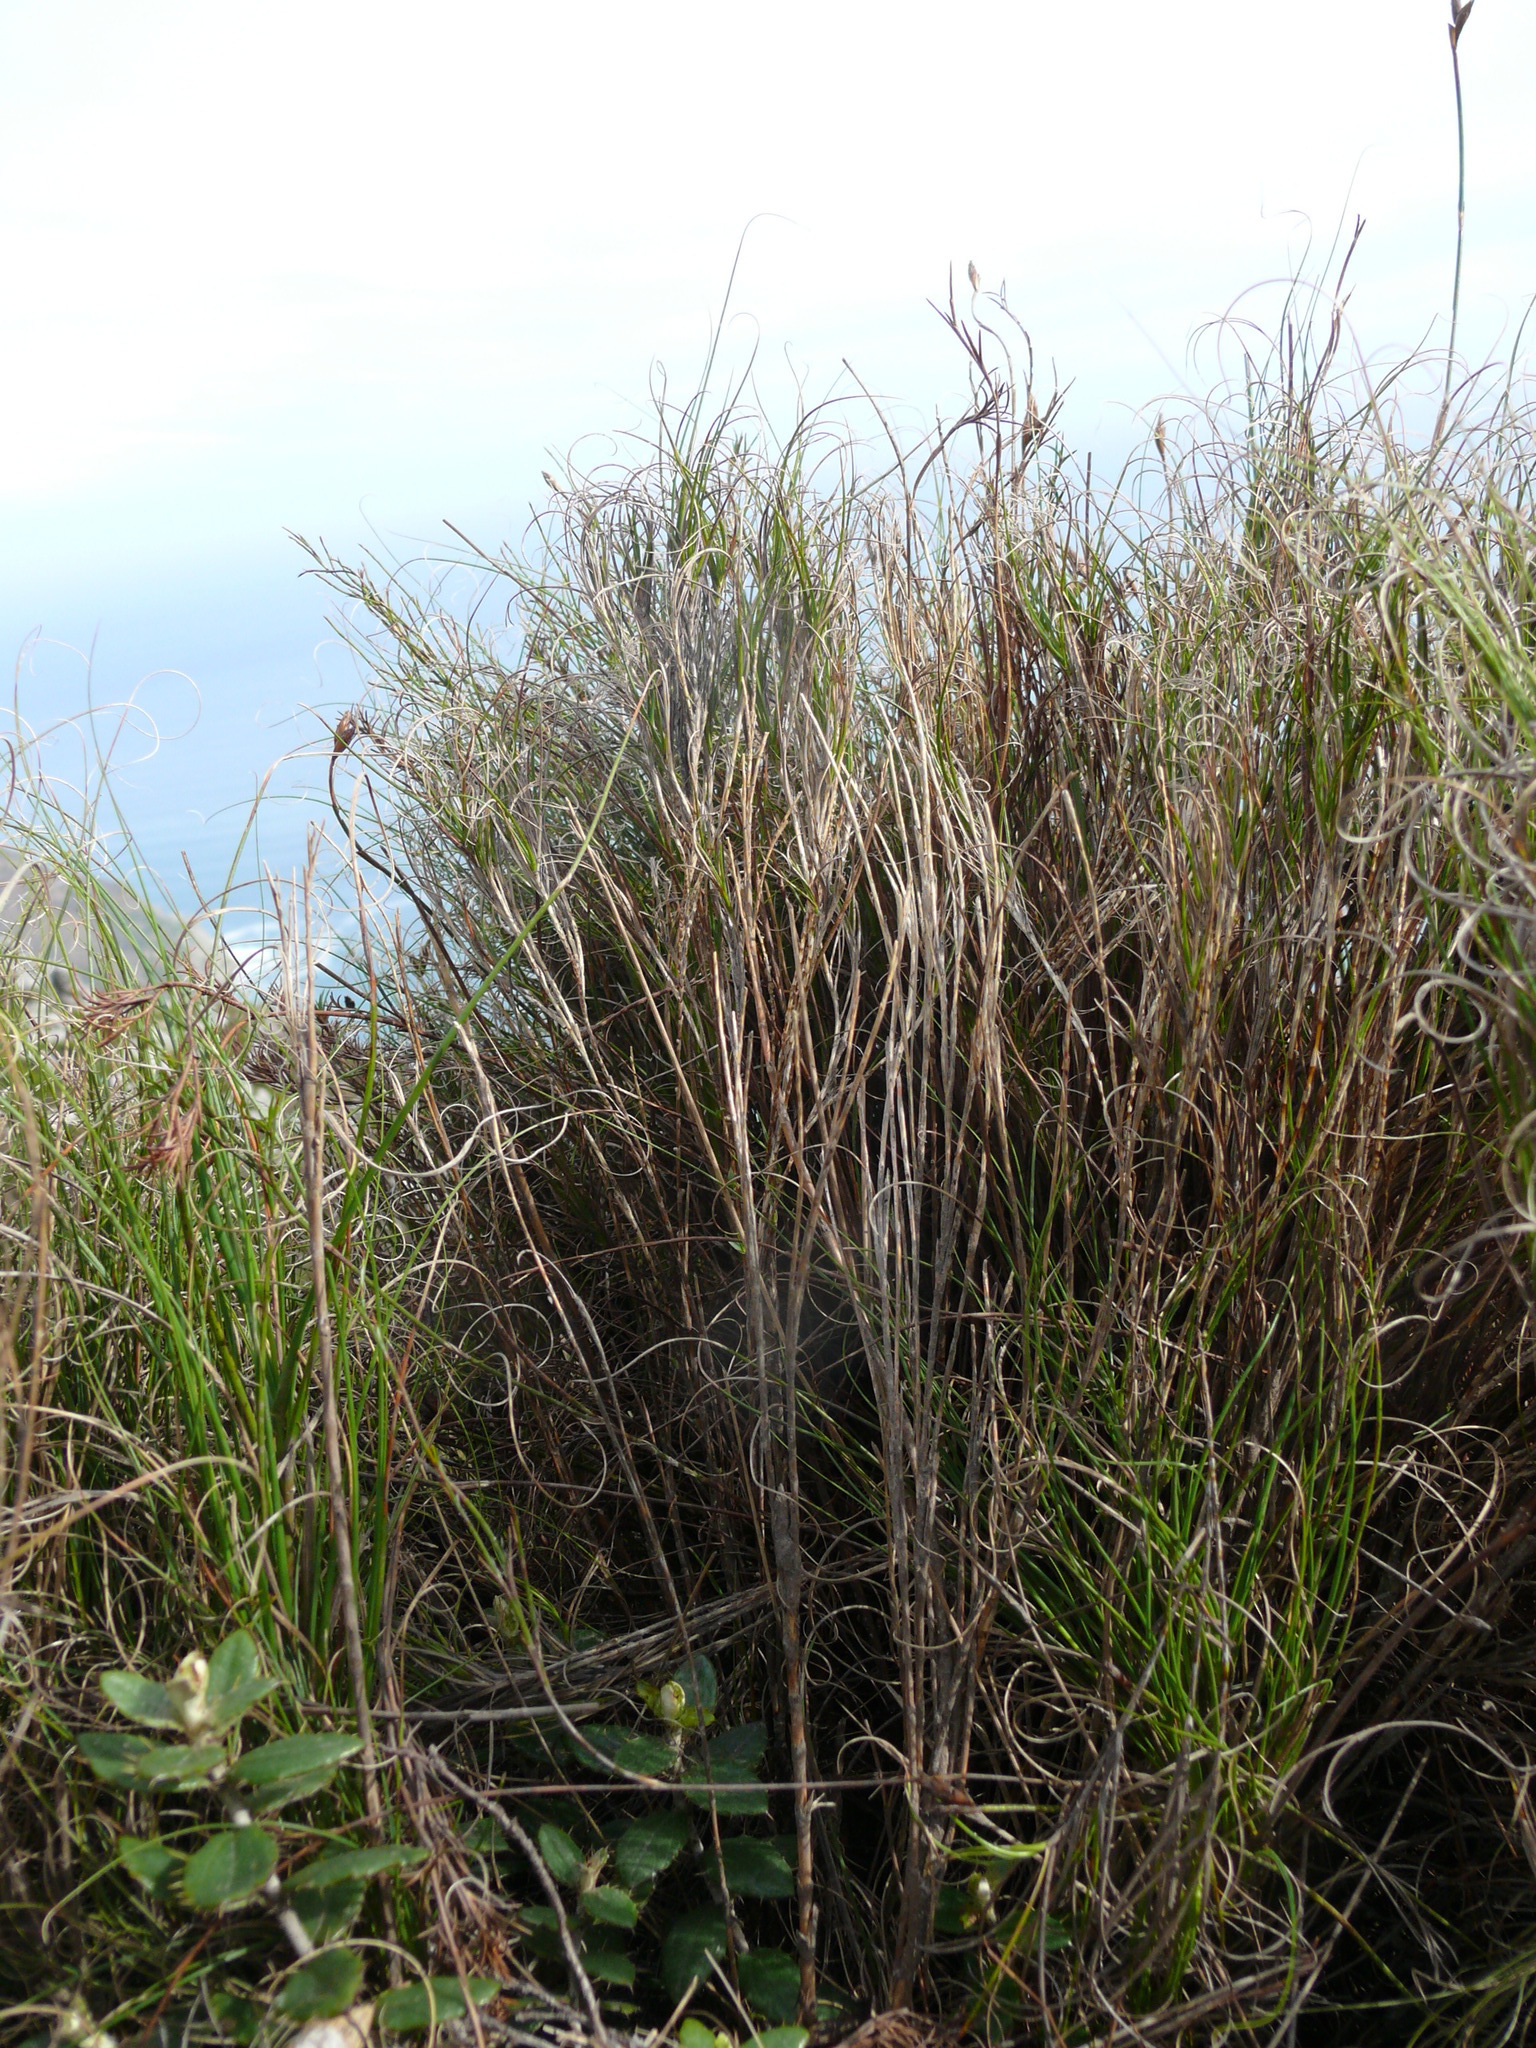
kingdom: Plantae
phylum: Tracheophyta
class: Liliopsida
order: Poales
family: Poaceae
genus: Pseudopentameris
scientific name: Pseudopentameris macrantha
